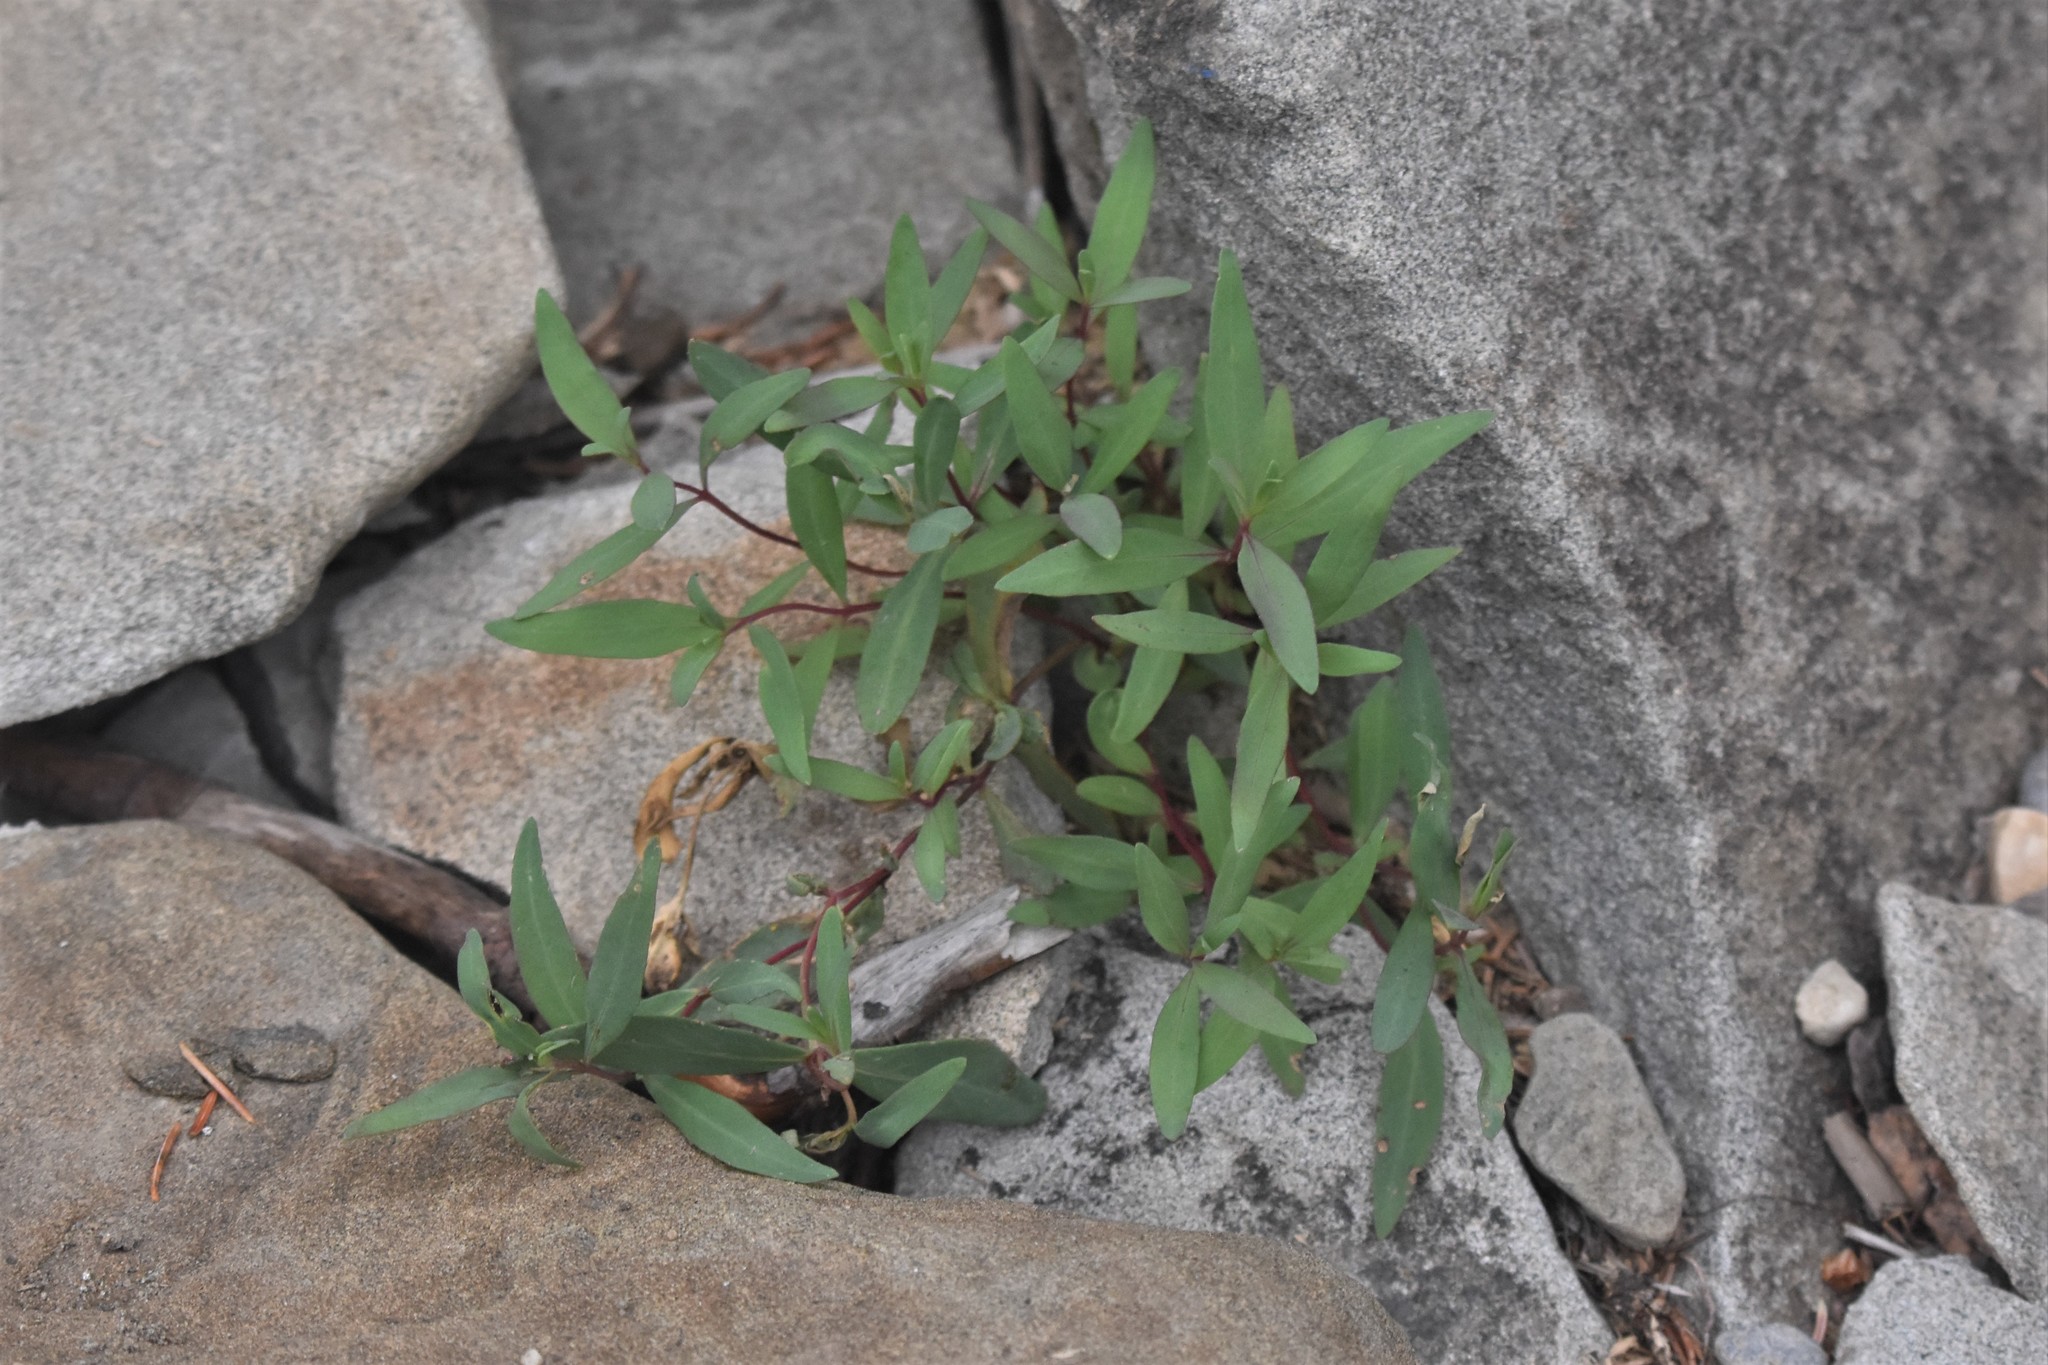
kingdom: Plantae
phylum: Tracheophyta
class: Magnoliopsida
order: Myrtales
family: Onagraceae
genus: Chamaenerion
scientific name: Chamaenerion latifolium
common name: Dwarf fireweed
